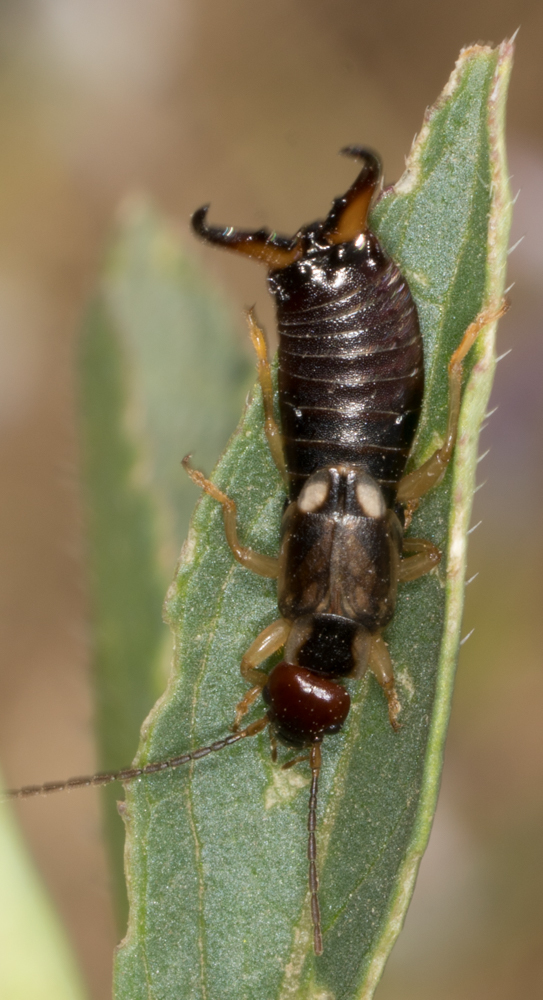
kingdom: Animalia
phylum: Arthropoda
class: Insecta
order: Dermaptera
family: Forficulidae
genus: Forficula
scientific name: Forficula
